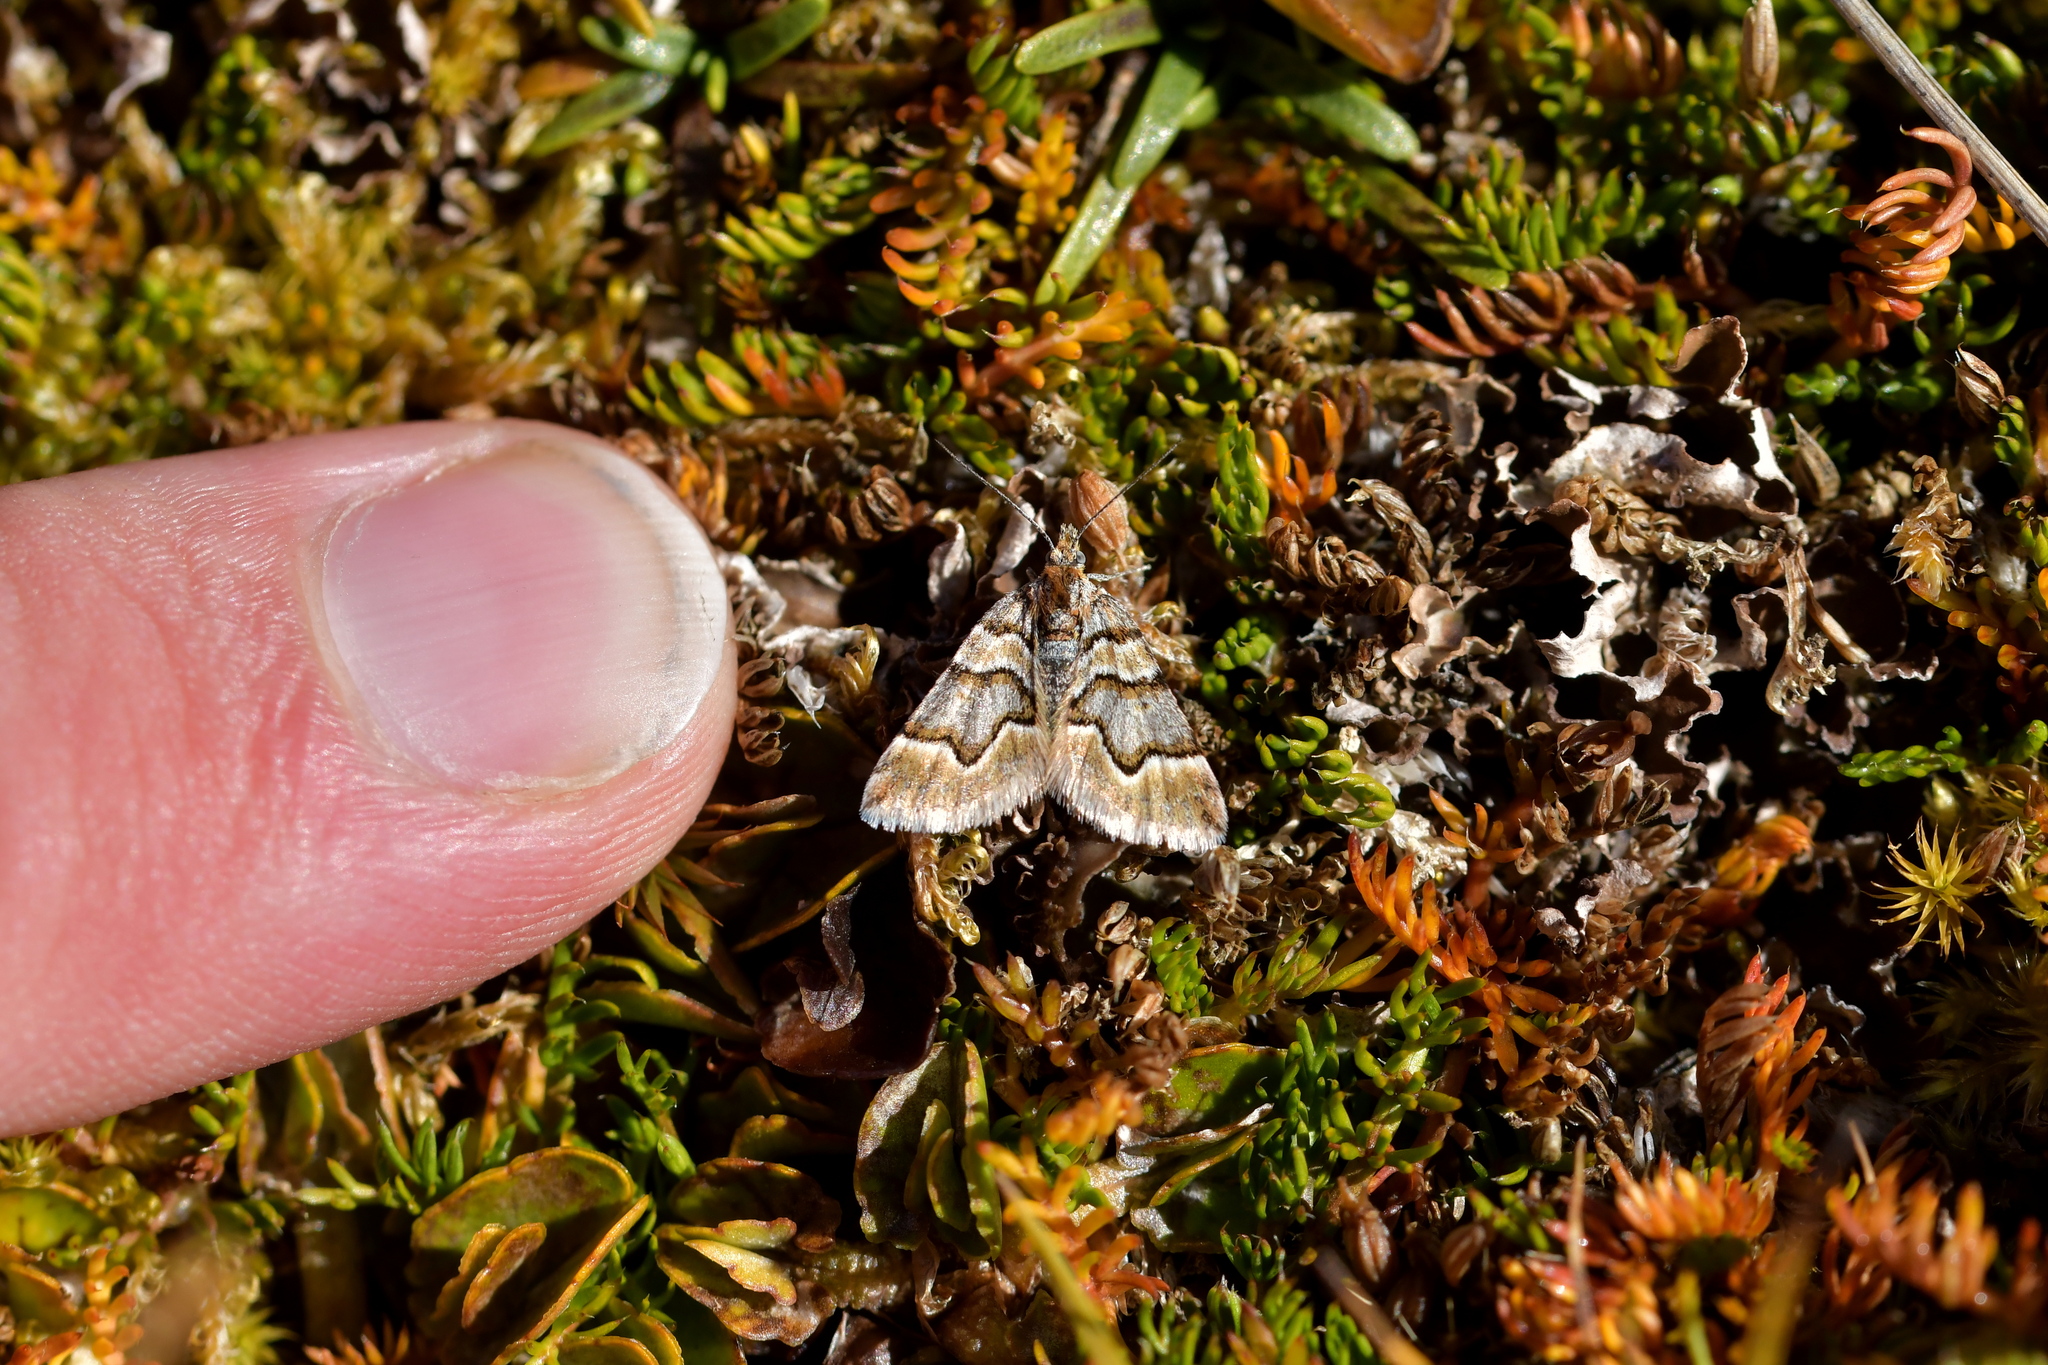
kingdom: Animalia
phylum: Arthropoda
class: Insecta
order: Lepidoptera
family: Geometridae
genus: Arctesthes
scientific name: Arctesthes siris
